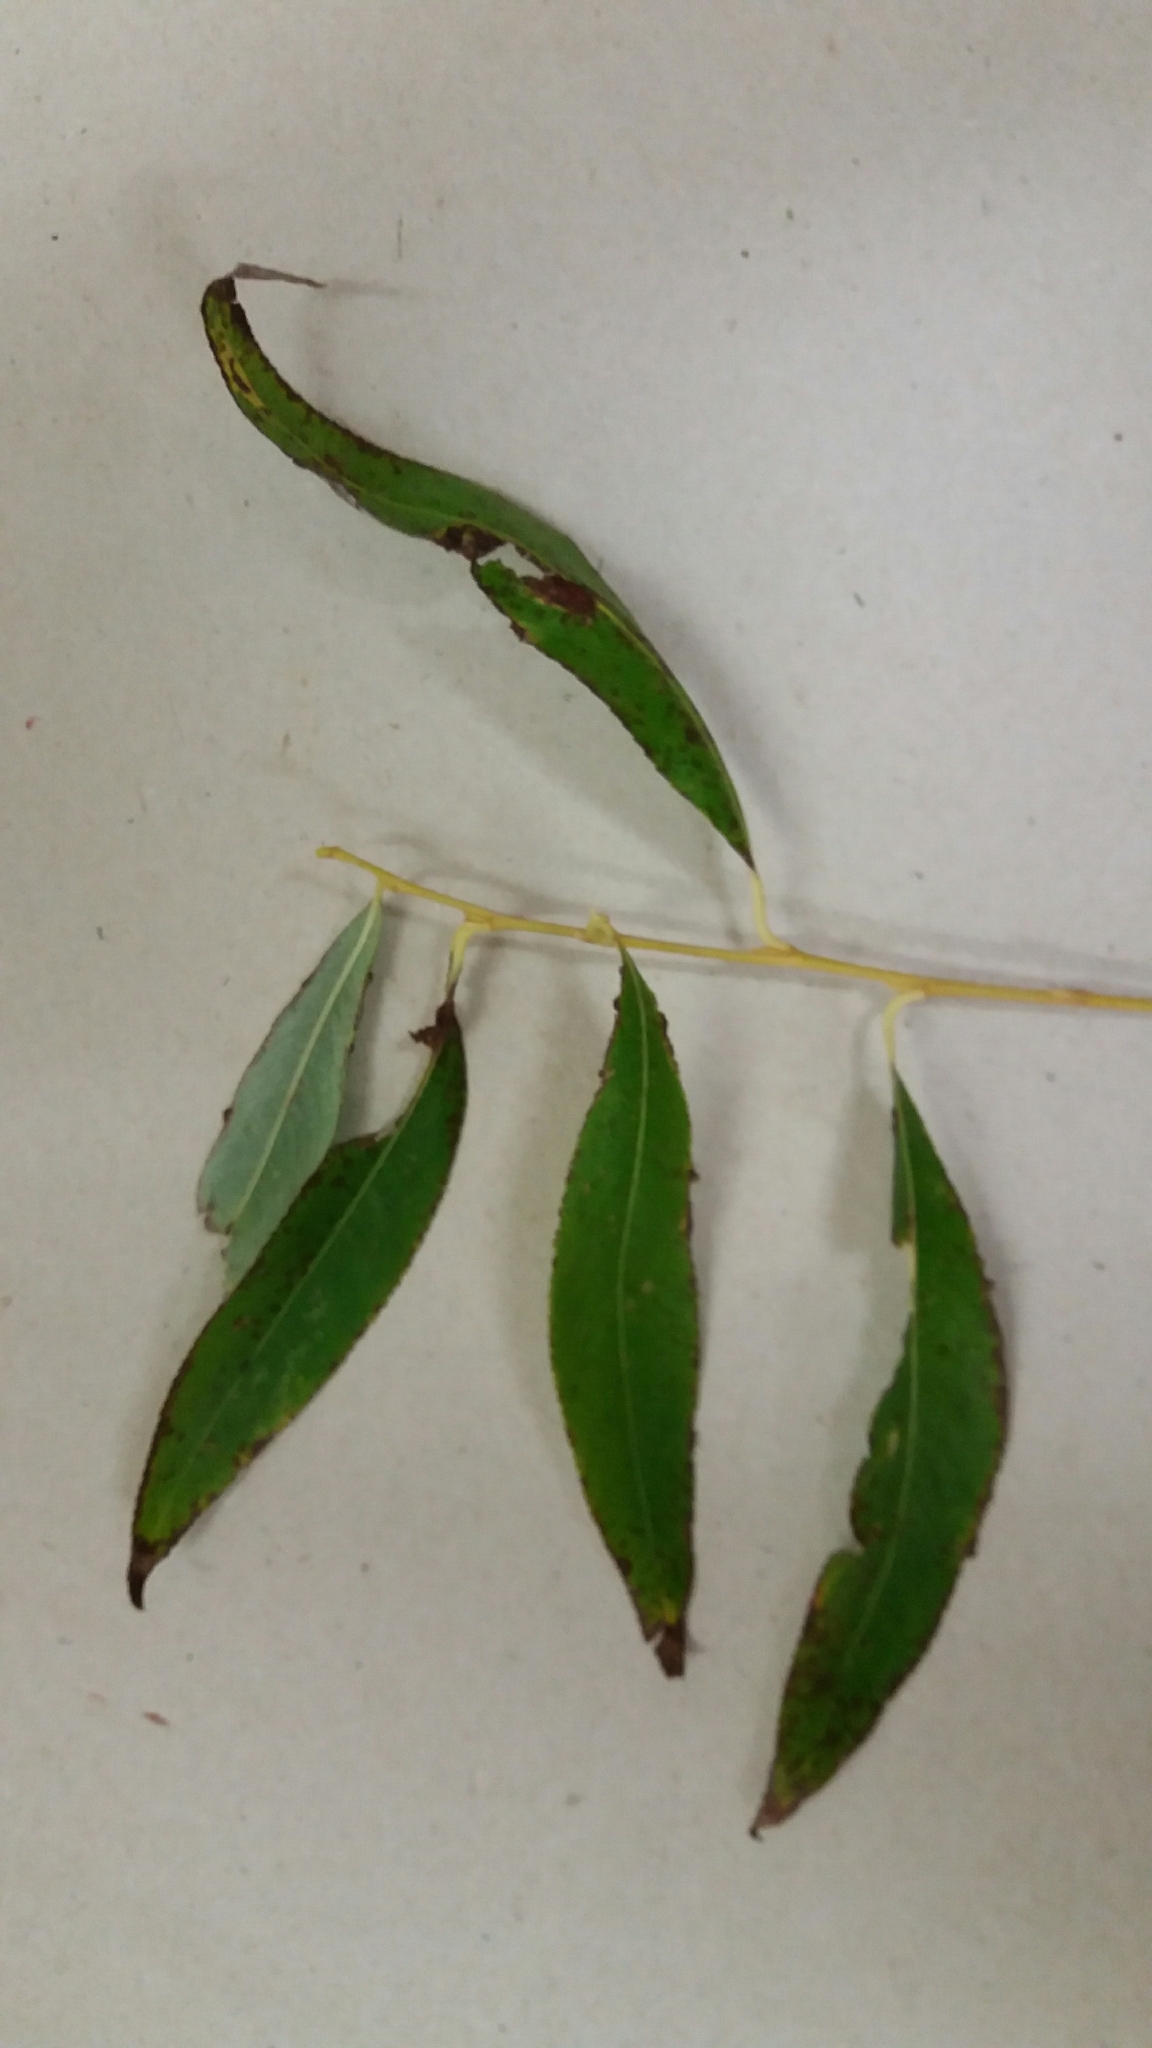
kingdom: Plantae
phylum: Tracheophyta
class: Magnoliopsida
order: Malpighiales
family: Salicaceae
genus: Salix
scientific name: Salix fragilis
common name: Crack willow
